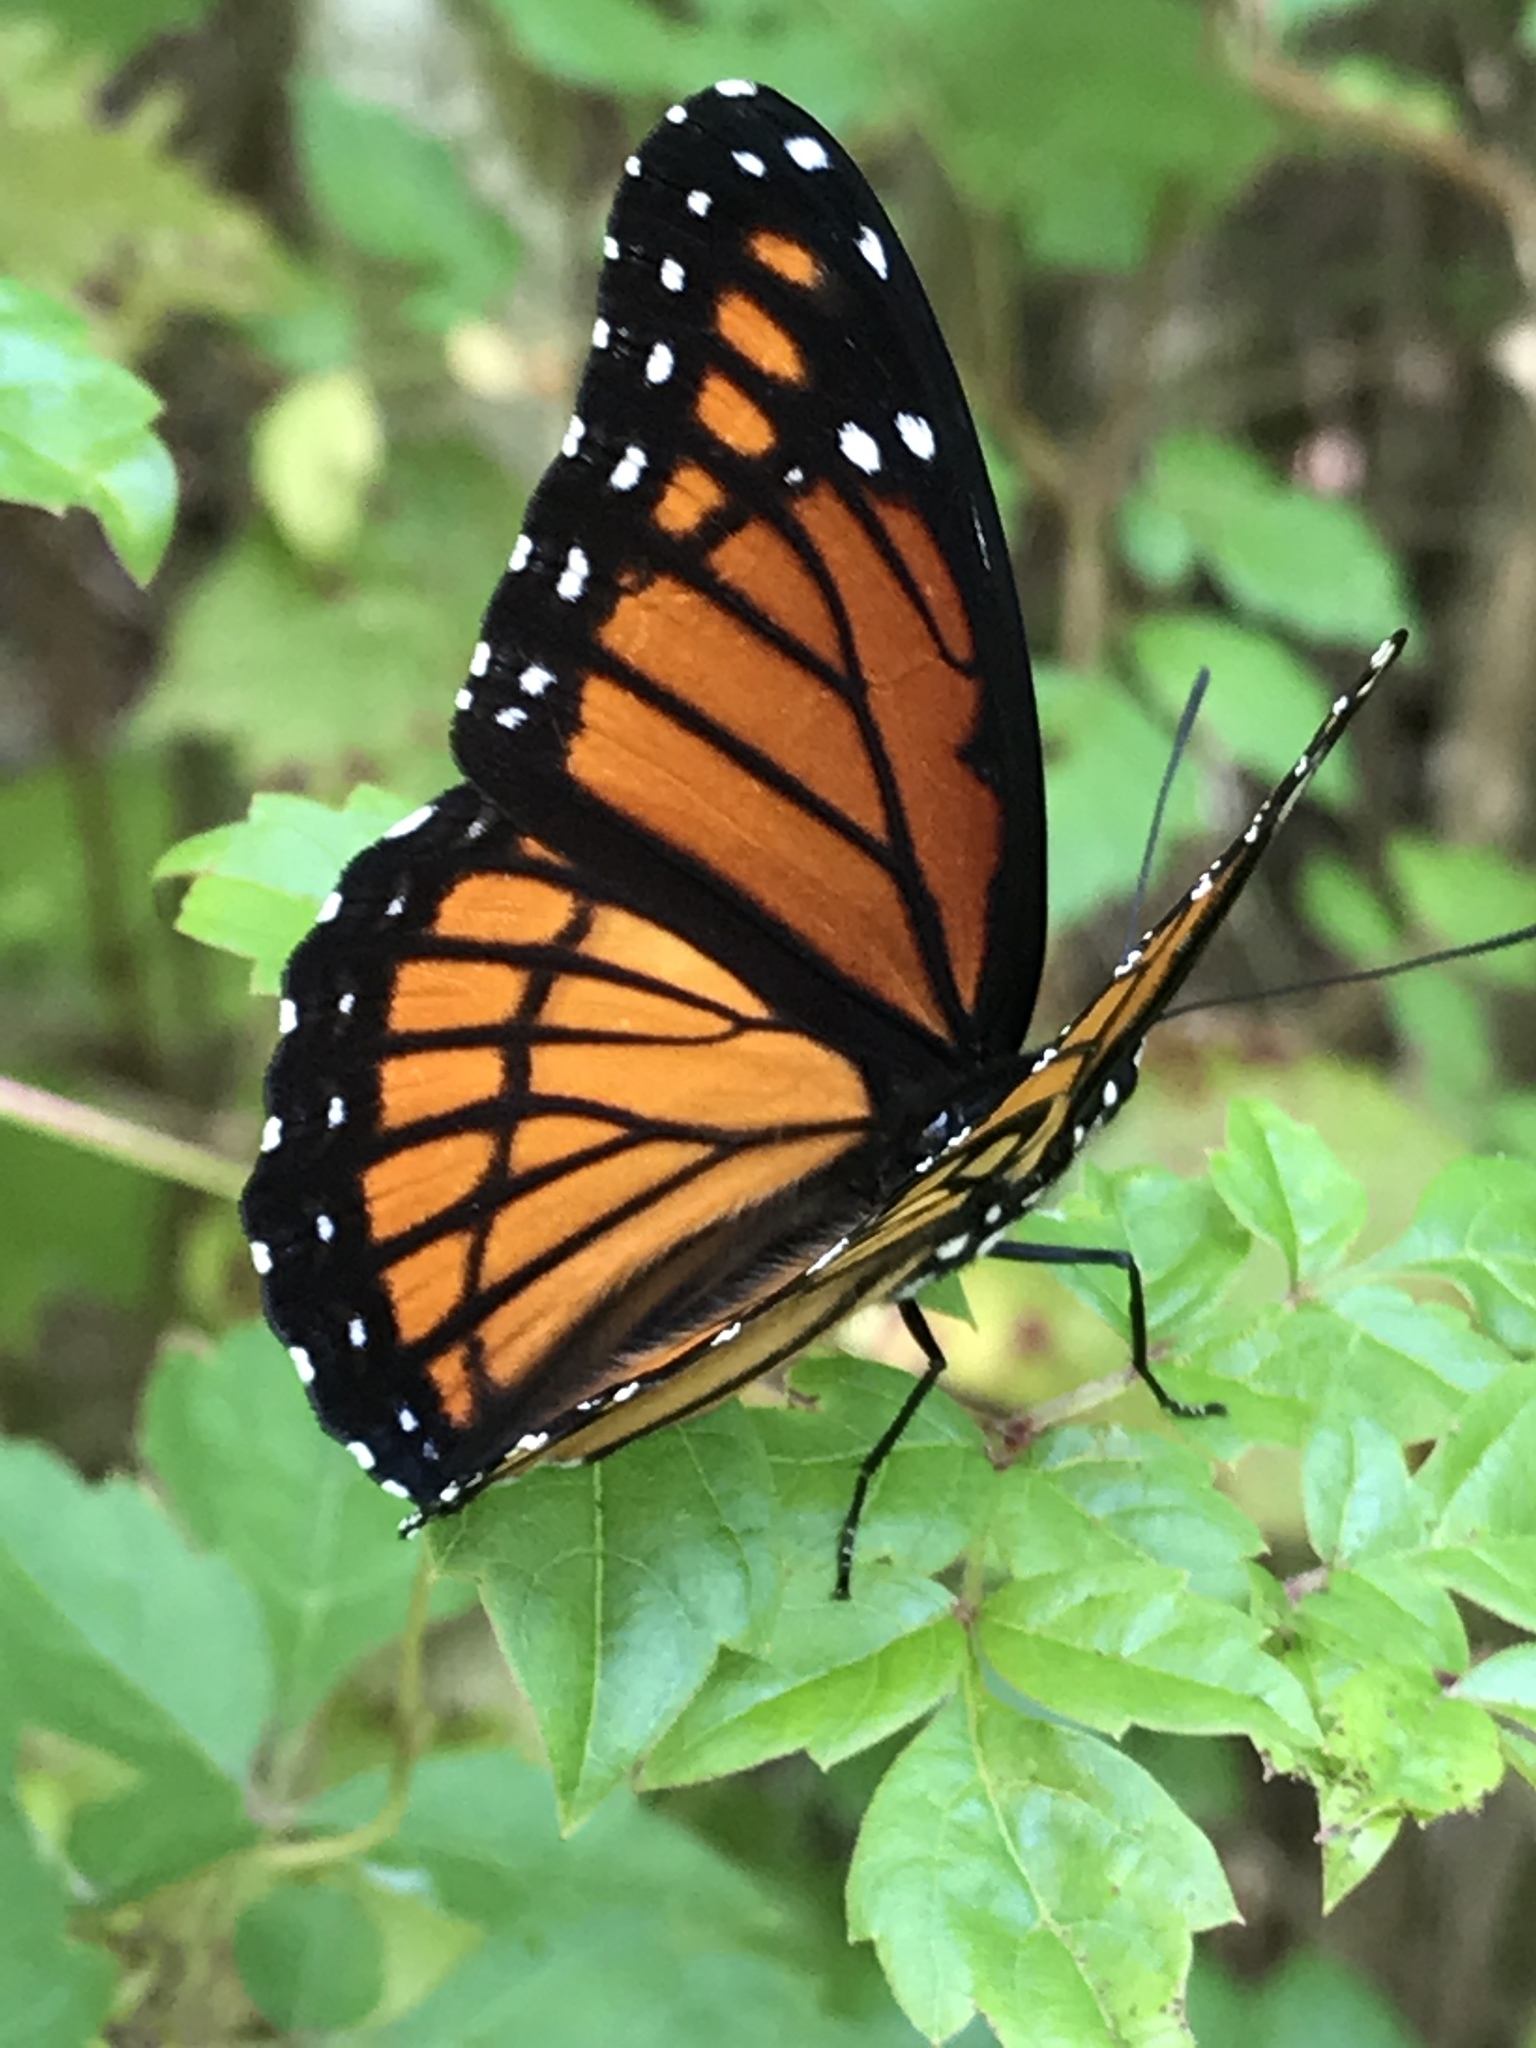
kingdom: Animalia
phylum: Arthropoda
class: Insecta
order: Lepidoptera
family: Nymphalidae
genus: Limenitis
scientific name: Limenitis archippus
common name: Viceroy
